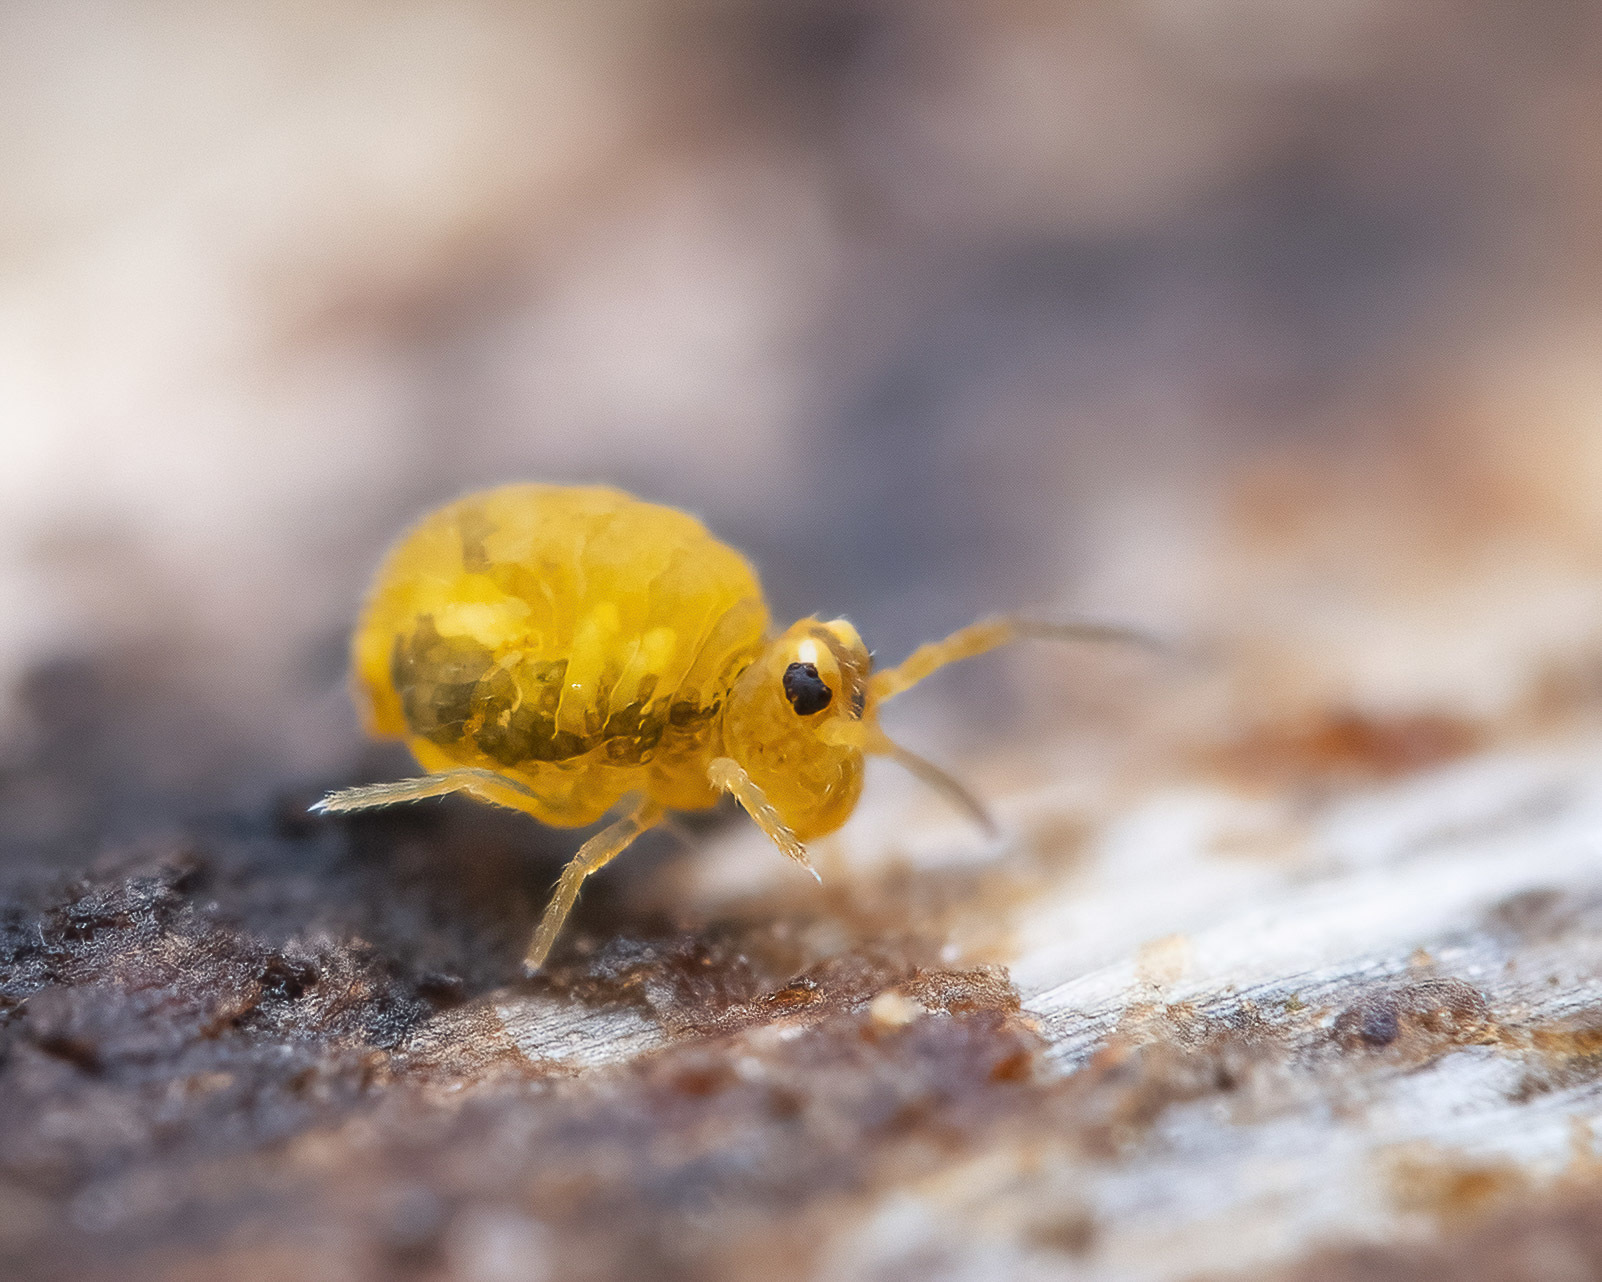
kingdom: Animalia
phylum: Arthropoda
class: Collembola
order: Symphypleona
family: Katiannidae
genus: Sminthurinus
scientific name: Sminthurinus aureus
